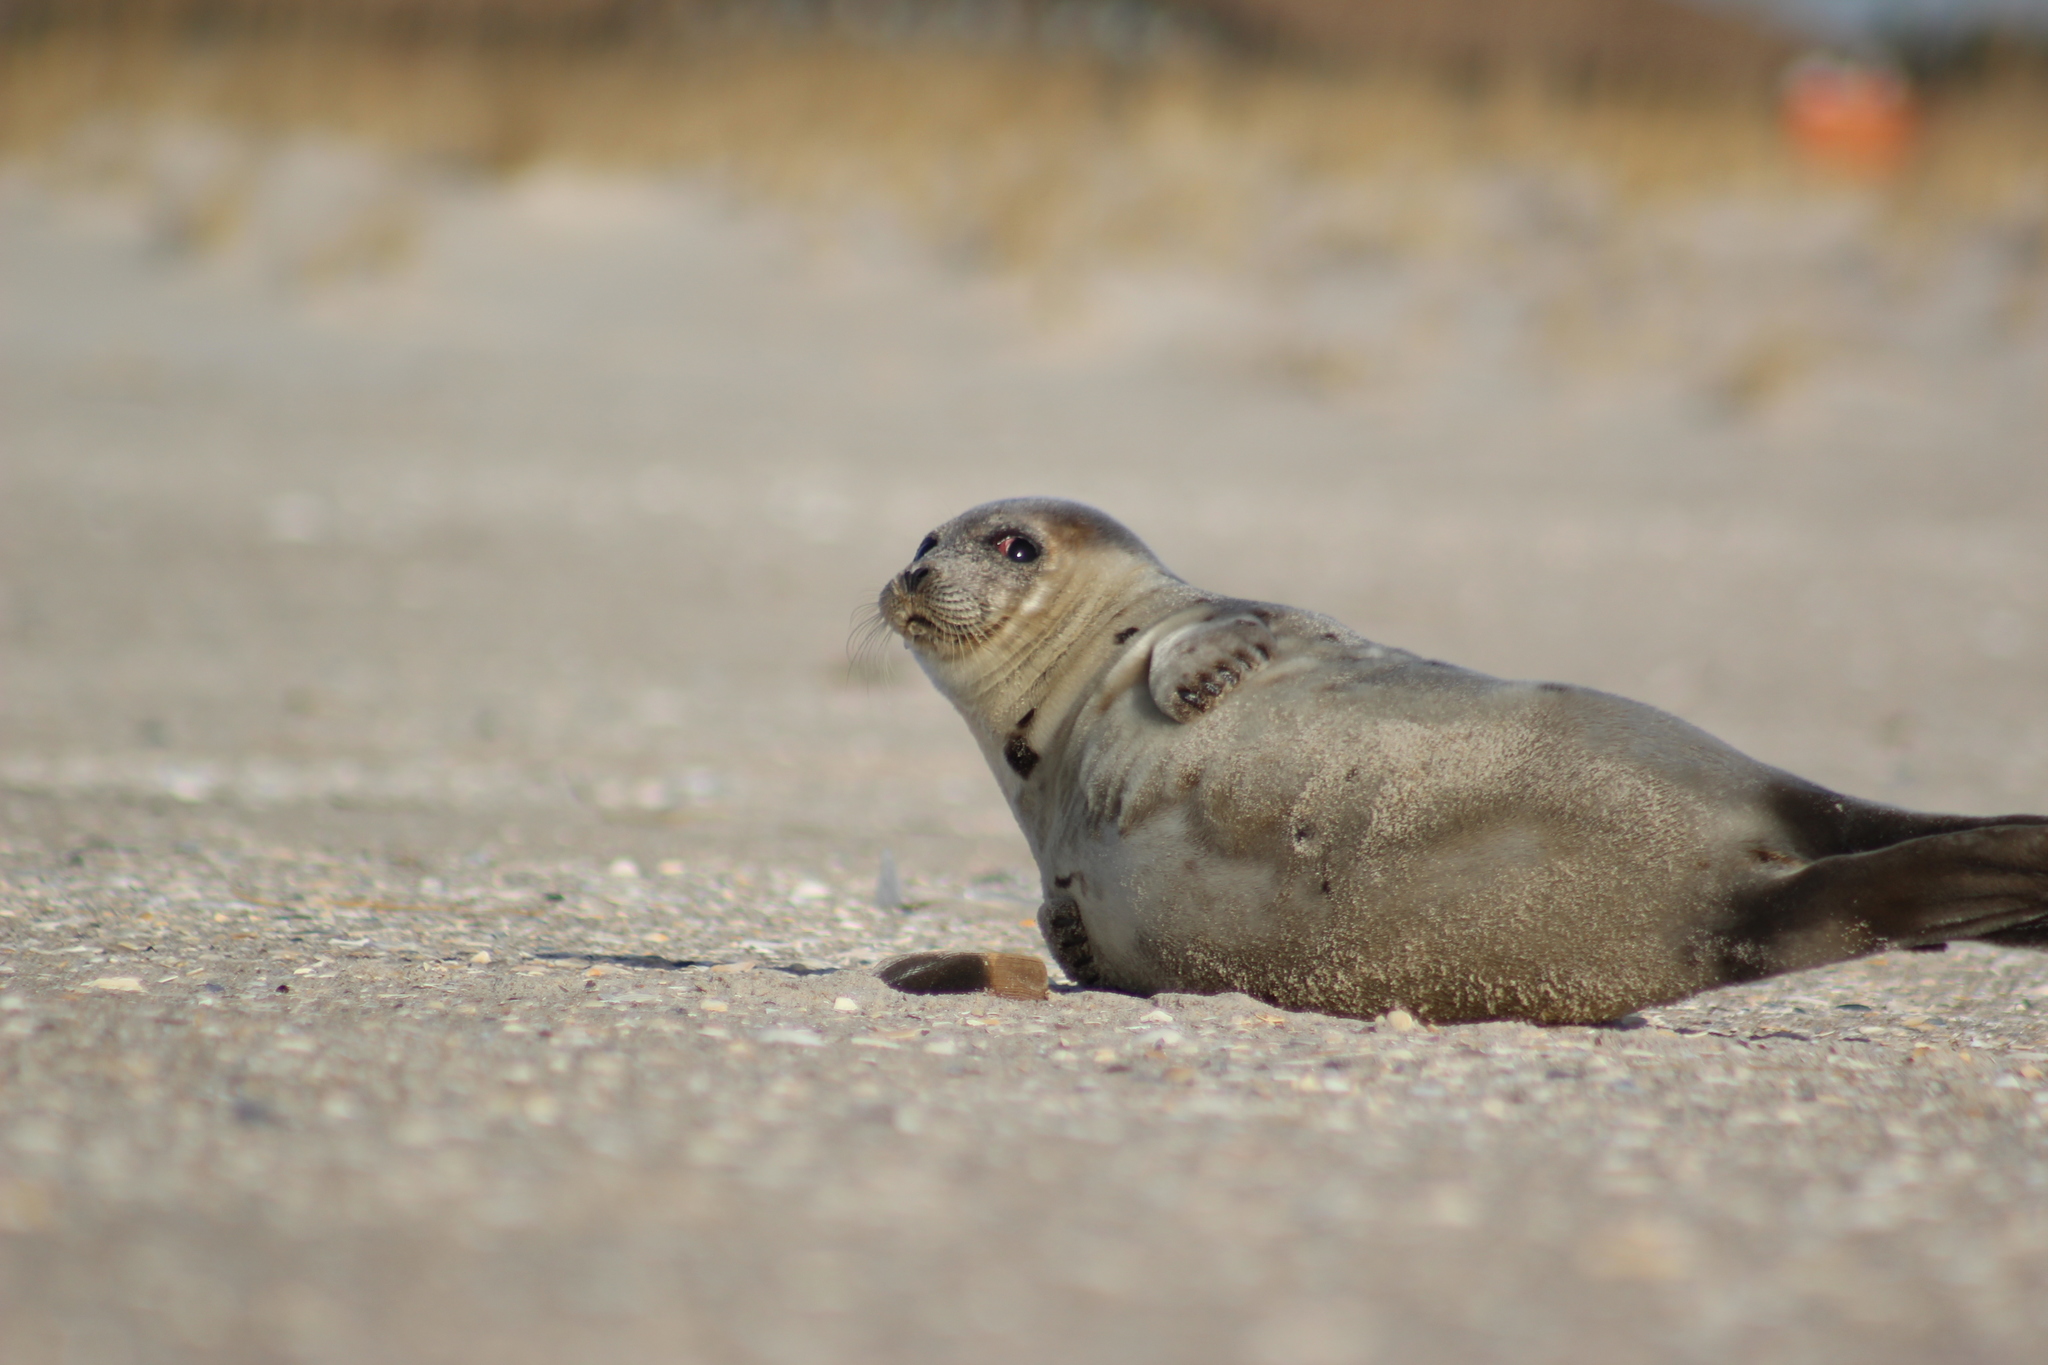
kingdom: Animalia
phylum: Chordata
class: Mammalia
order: Carnivora
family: Phocidae
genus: Pagophilus
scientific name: Pagophilus groenlandicus
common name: Harp seal
